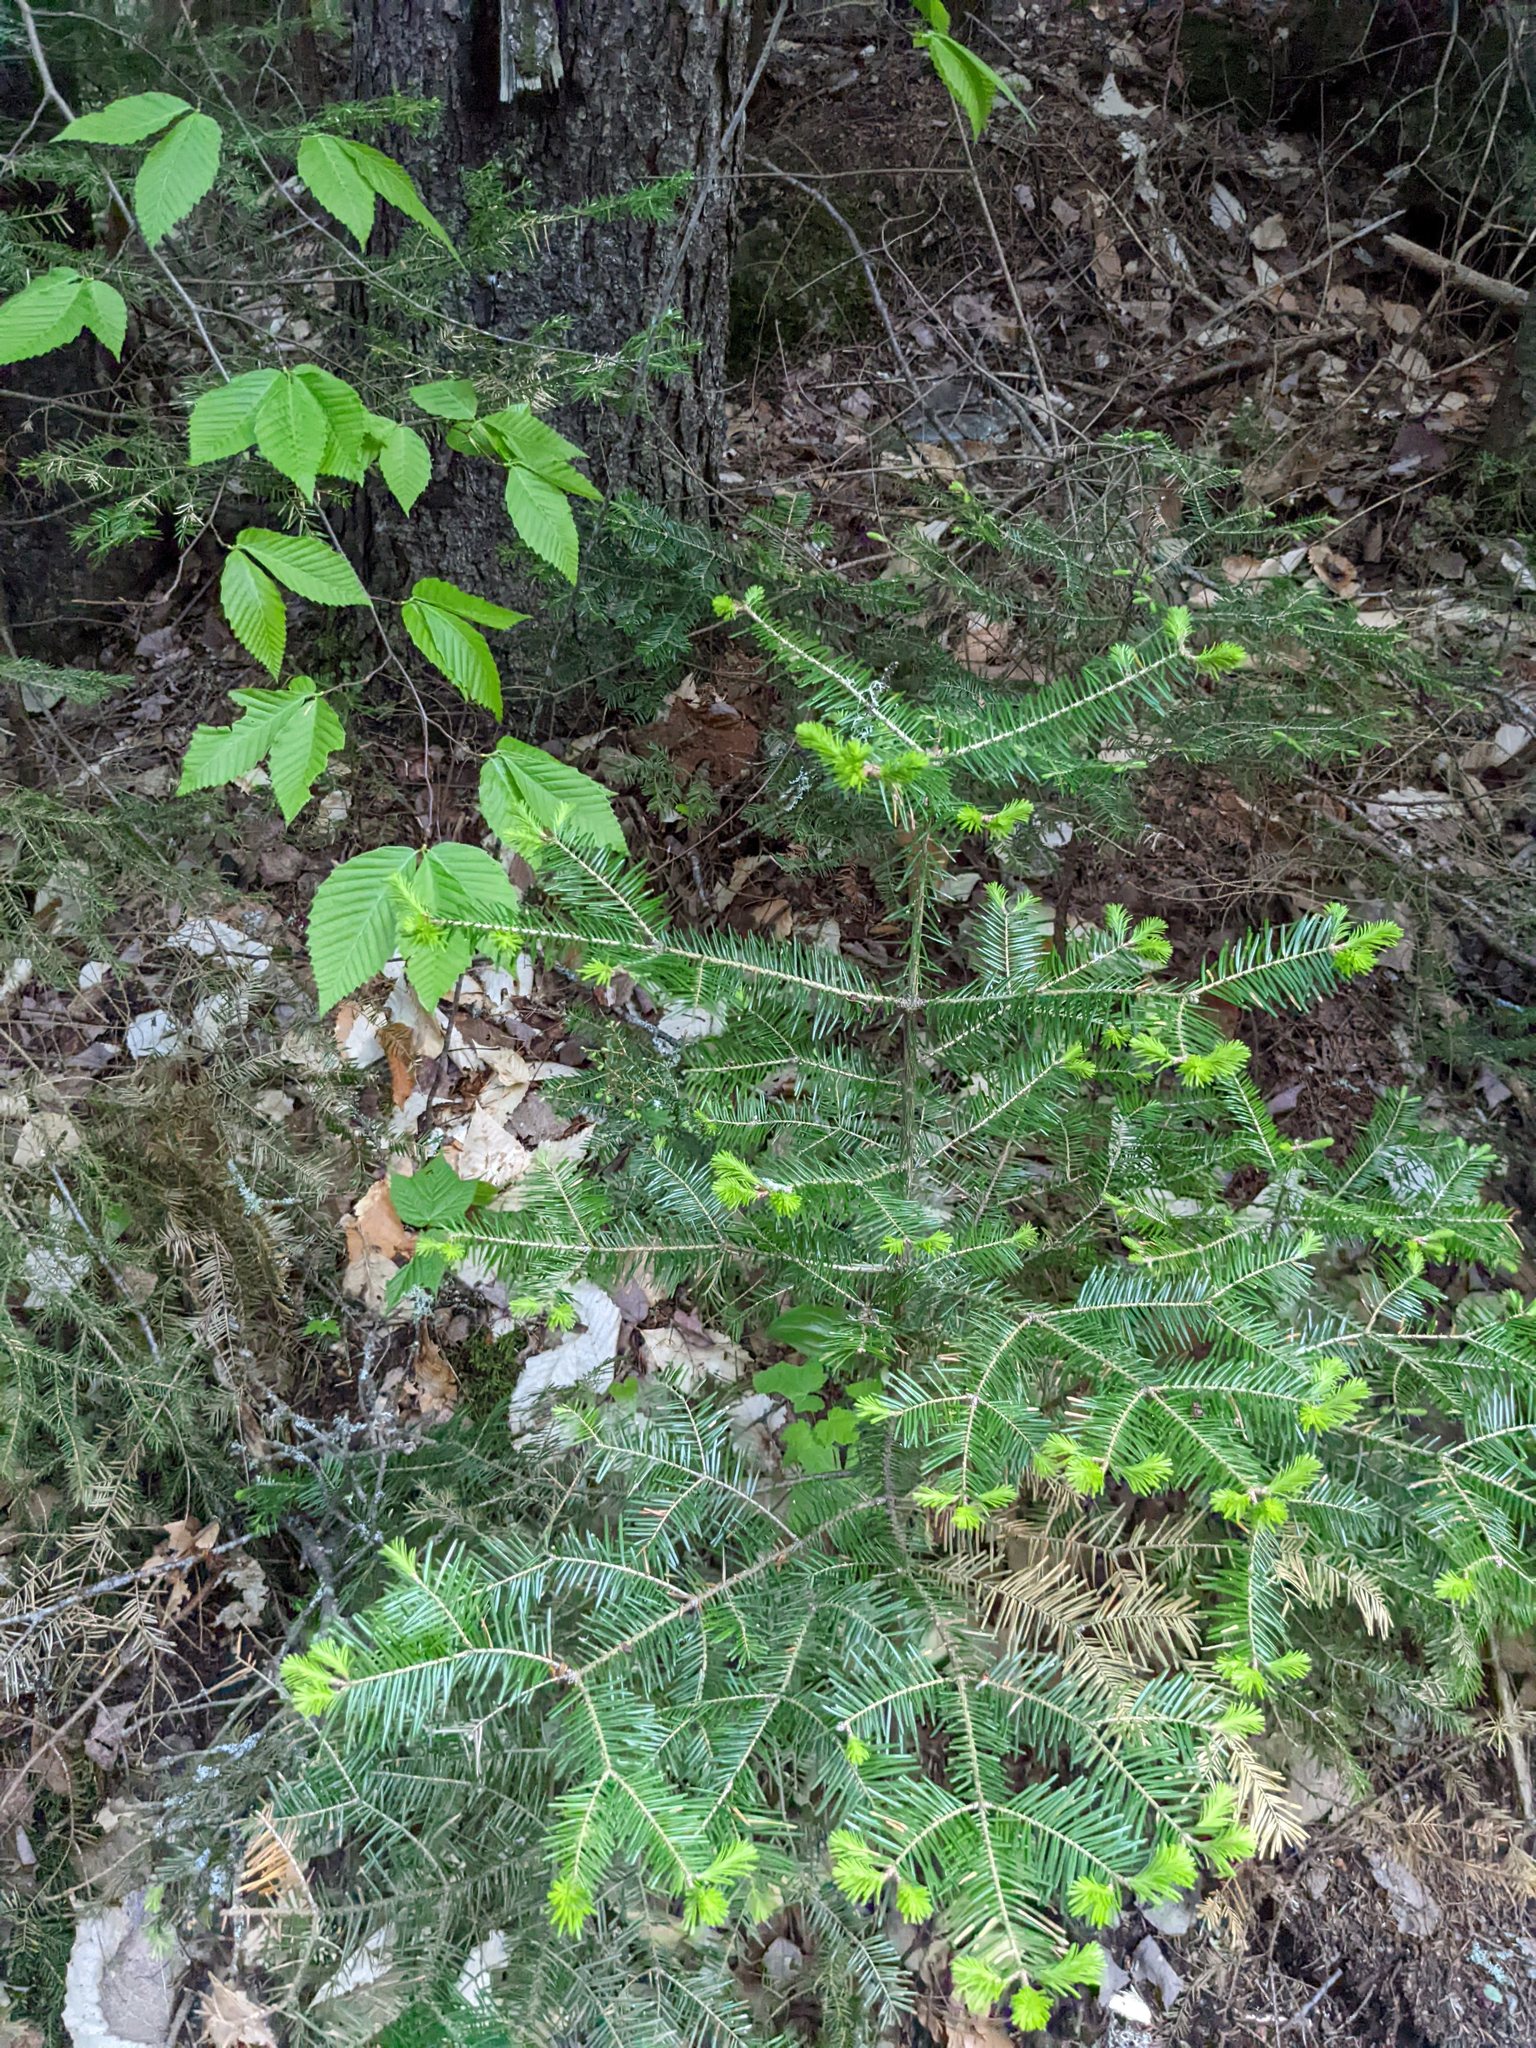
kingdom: Plantae
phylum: Tracheophyta
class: Pinopsida
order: Pinales
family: Pinaceae
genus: Abies
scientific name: Abies balsamea
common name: Balsam fir
